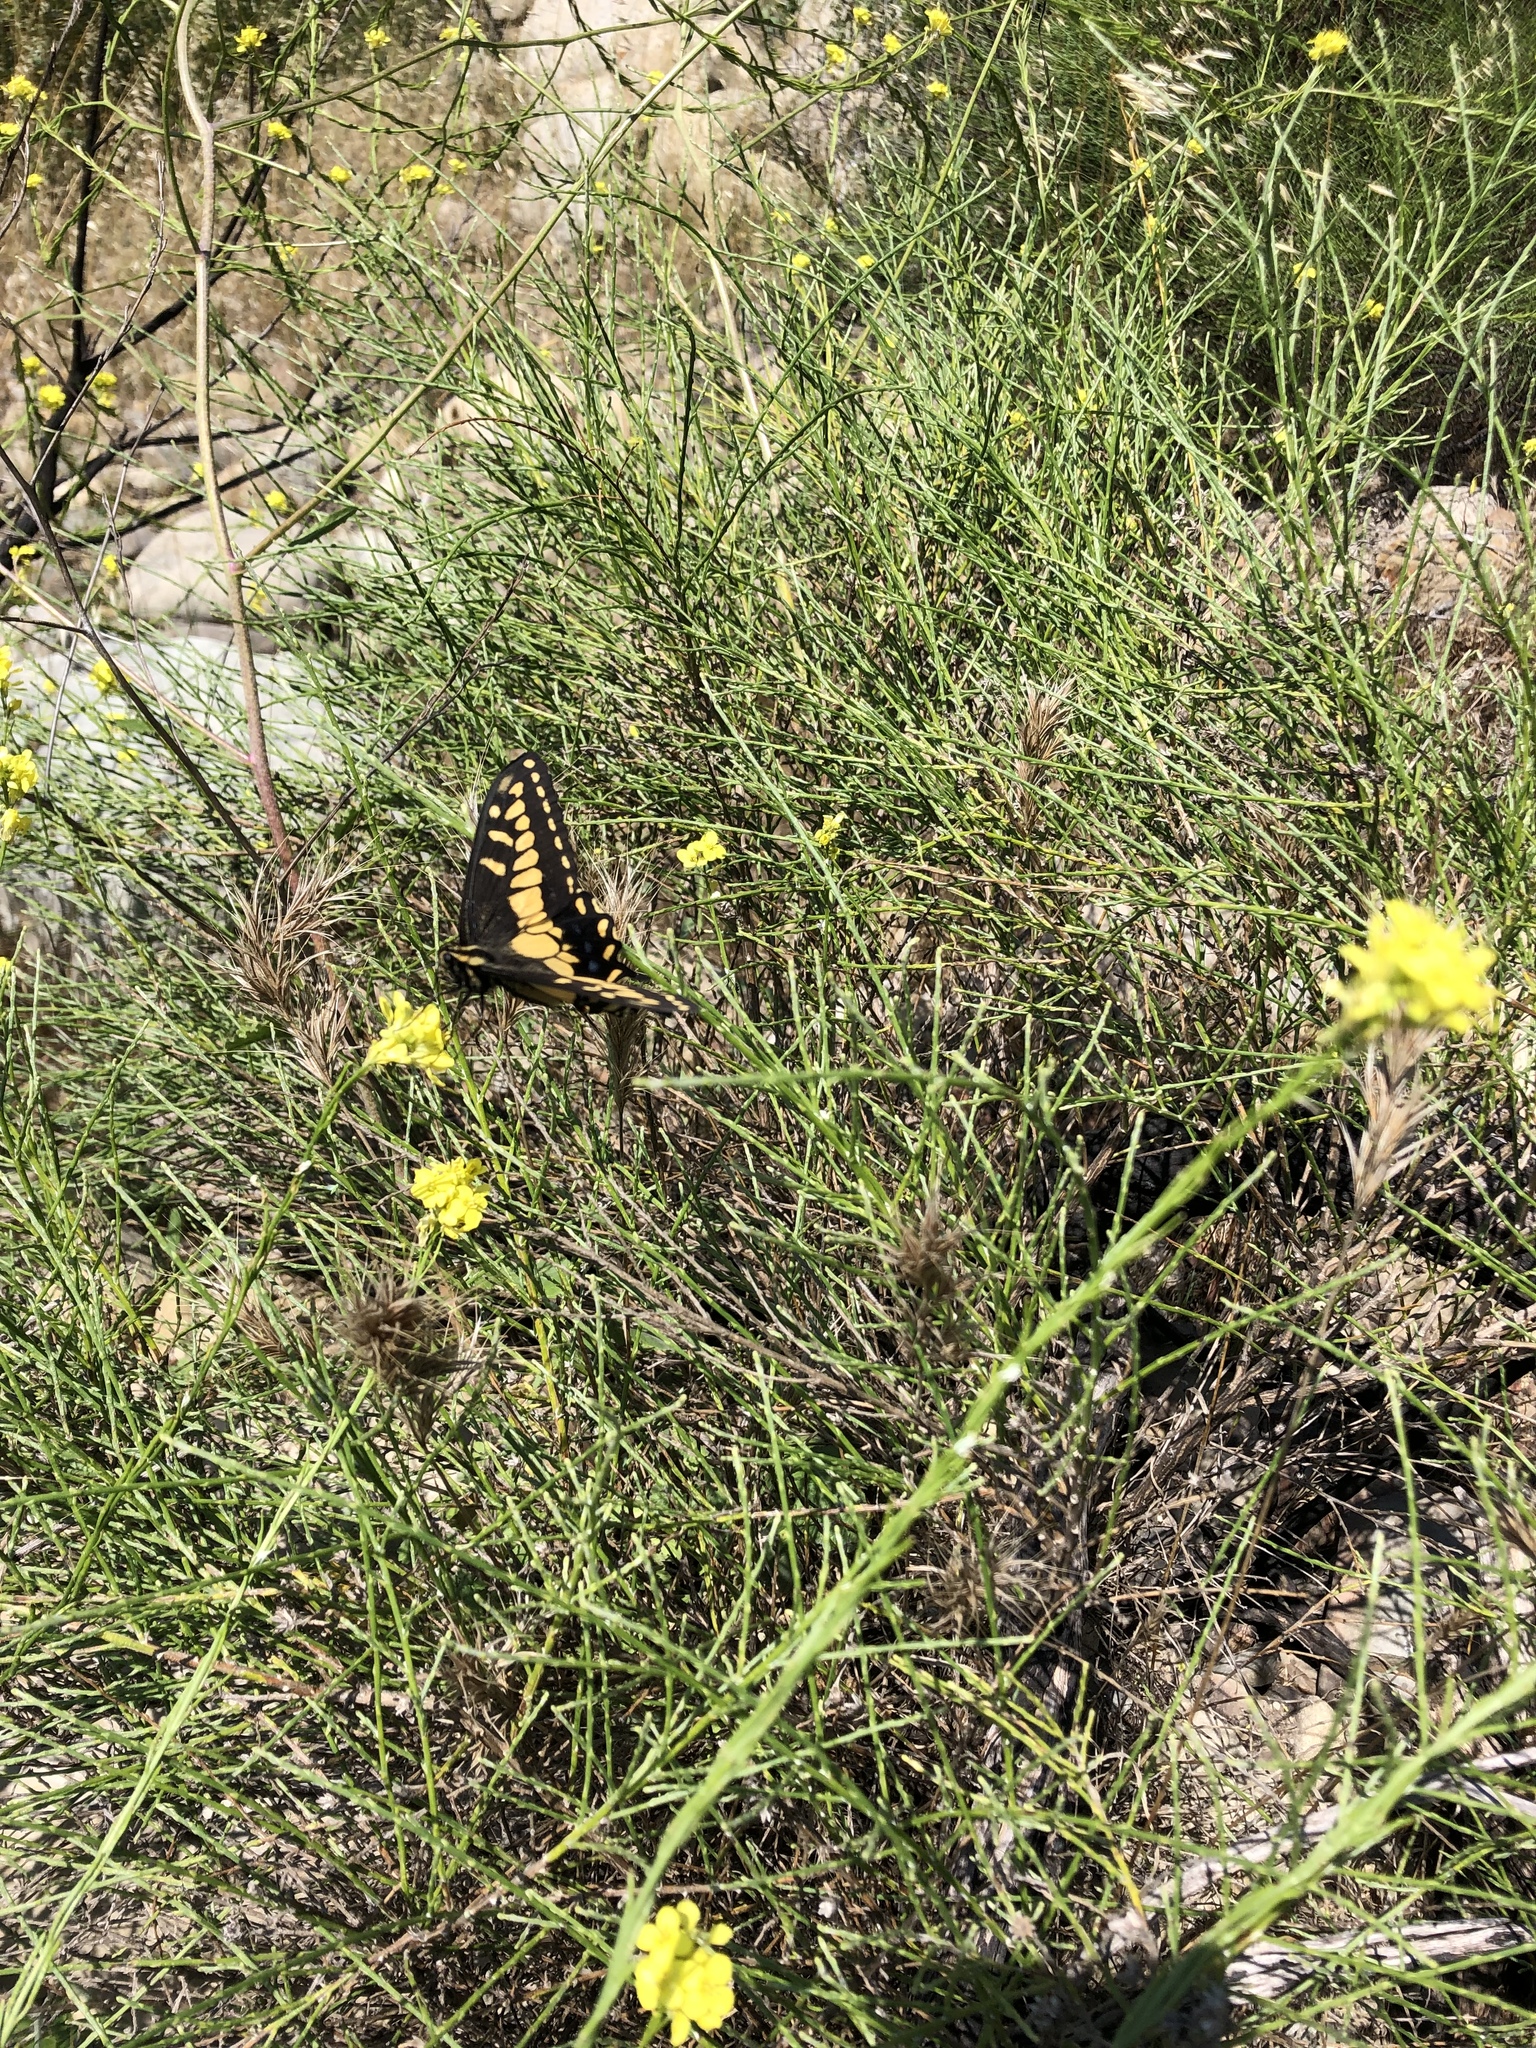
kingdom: Animalia
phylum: Arthropoda
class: Insecta
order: Lepidoptera
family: Papilionidae
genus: Papilio
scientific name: Papilio zelicaon
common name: Anise swallowtail
